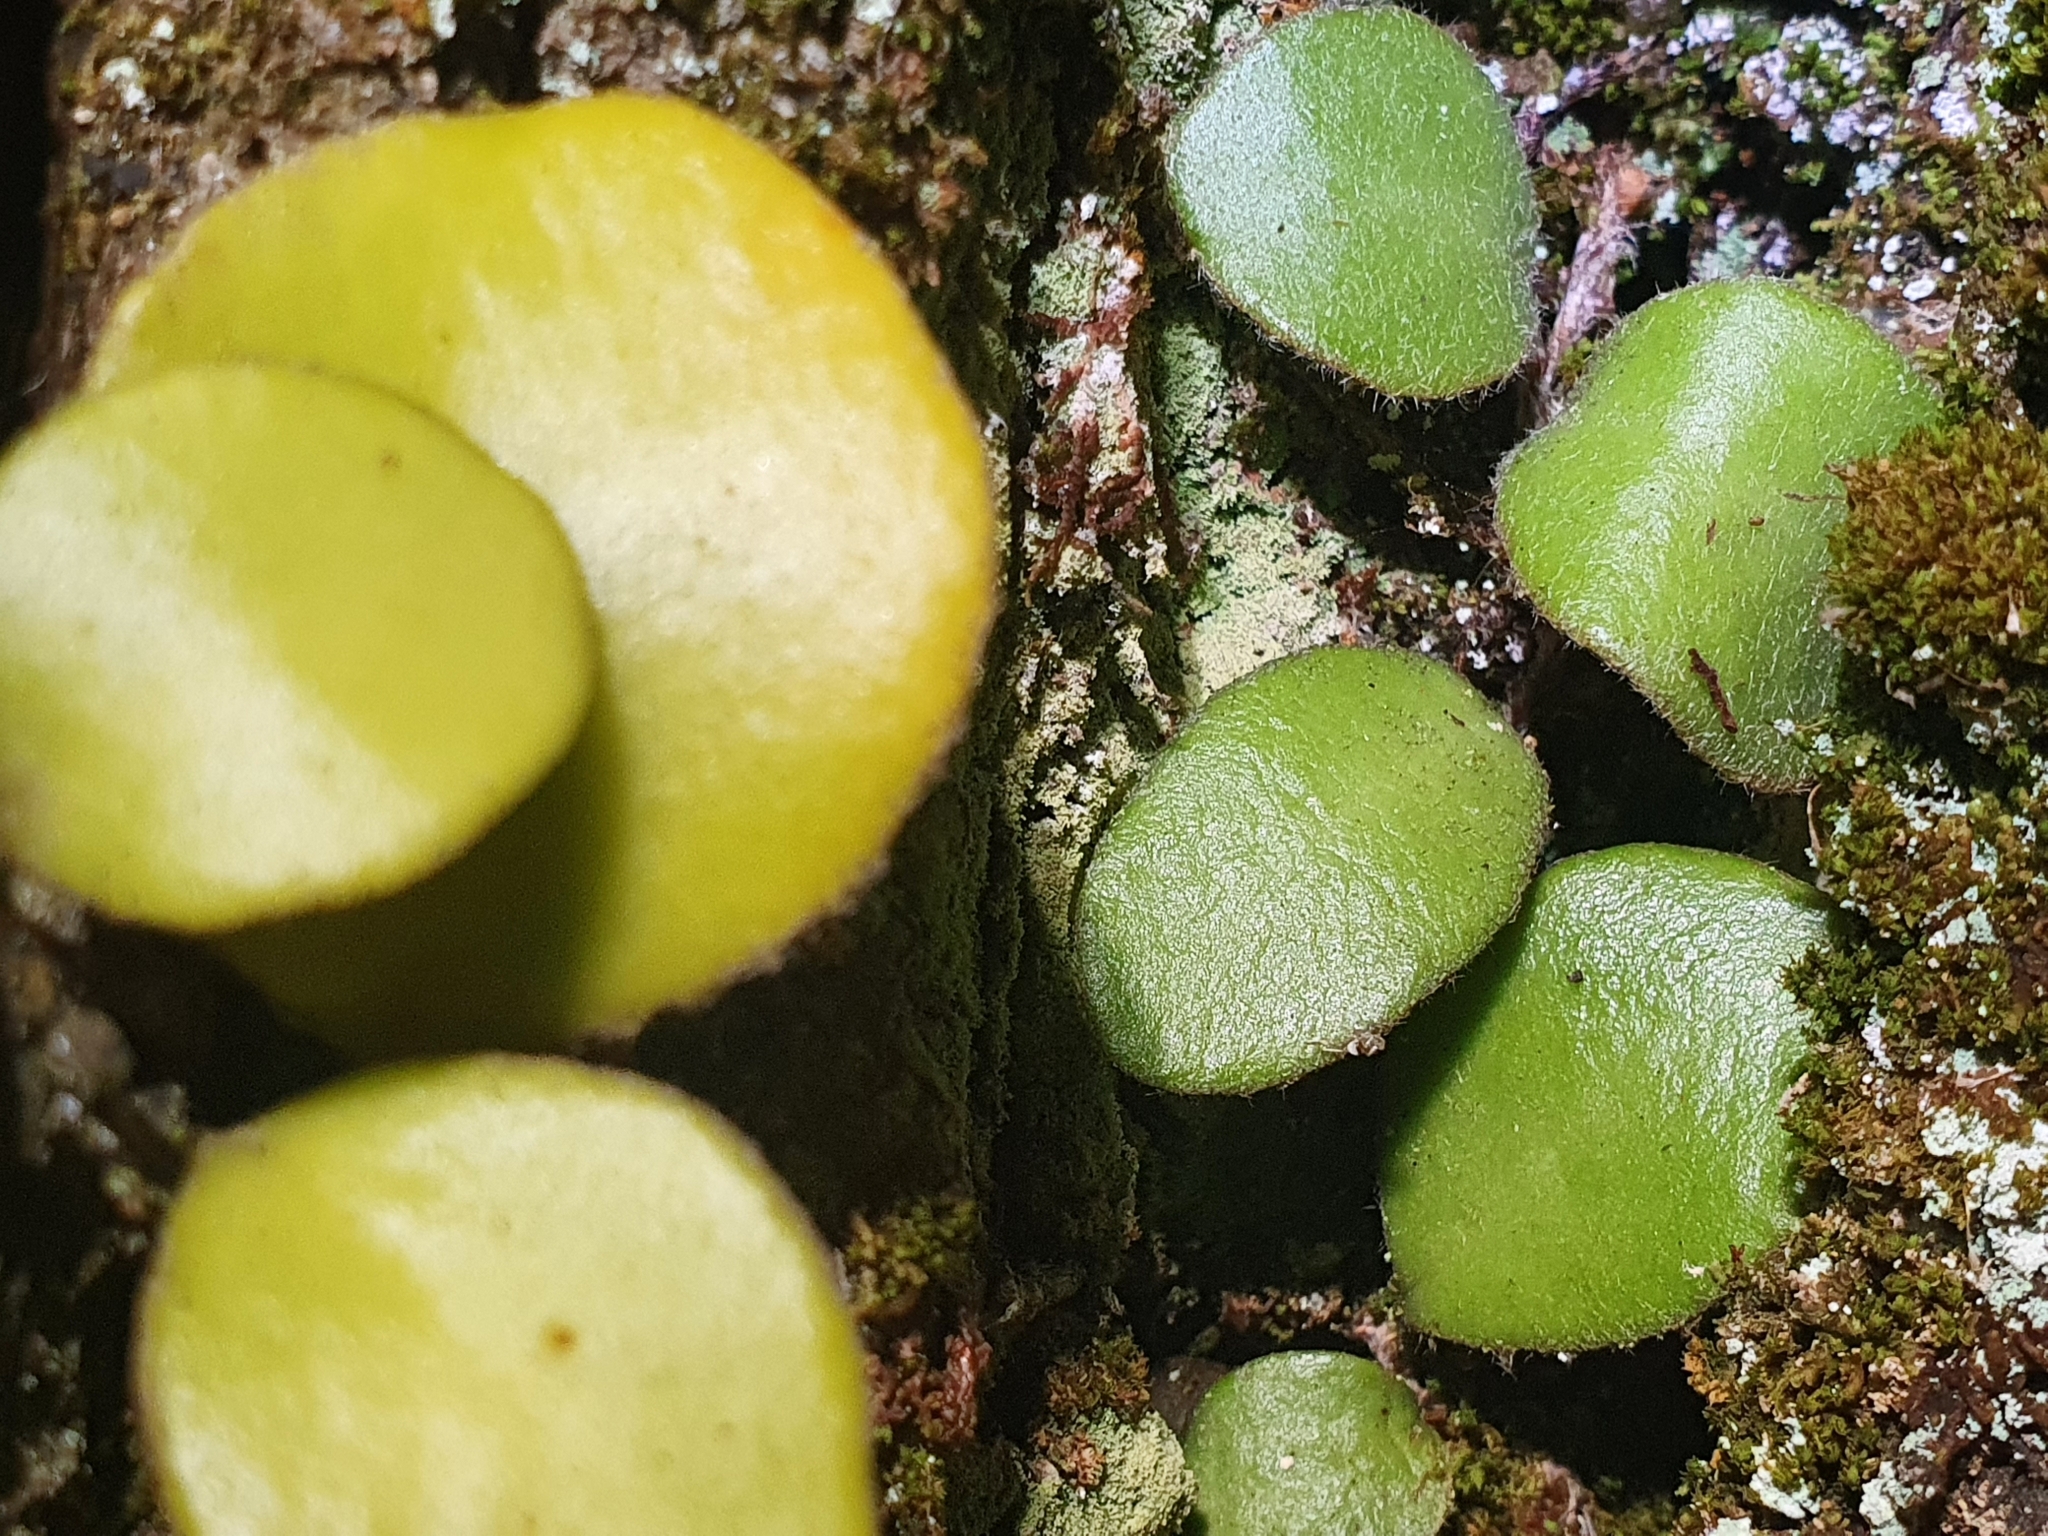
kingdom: Plantae
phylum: Tracheophyta
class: Polypodiopsida
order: Polypodiales
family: Polypodiaceae
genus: Pyrrosia
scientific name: Pyrrosia eleagnifolia
